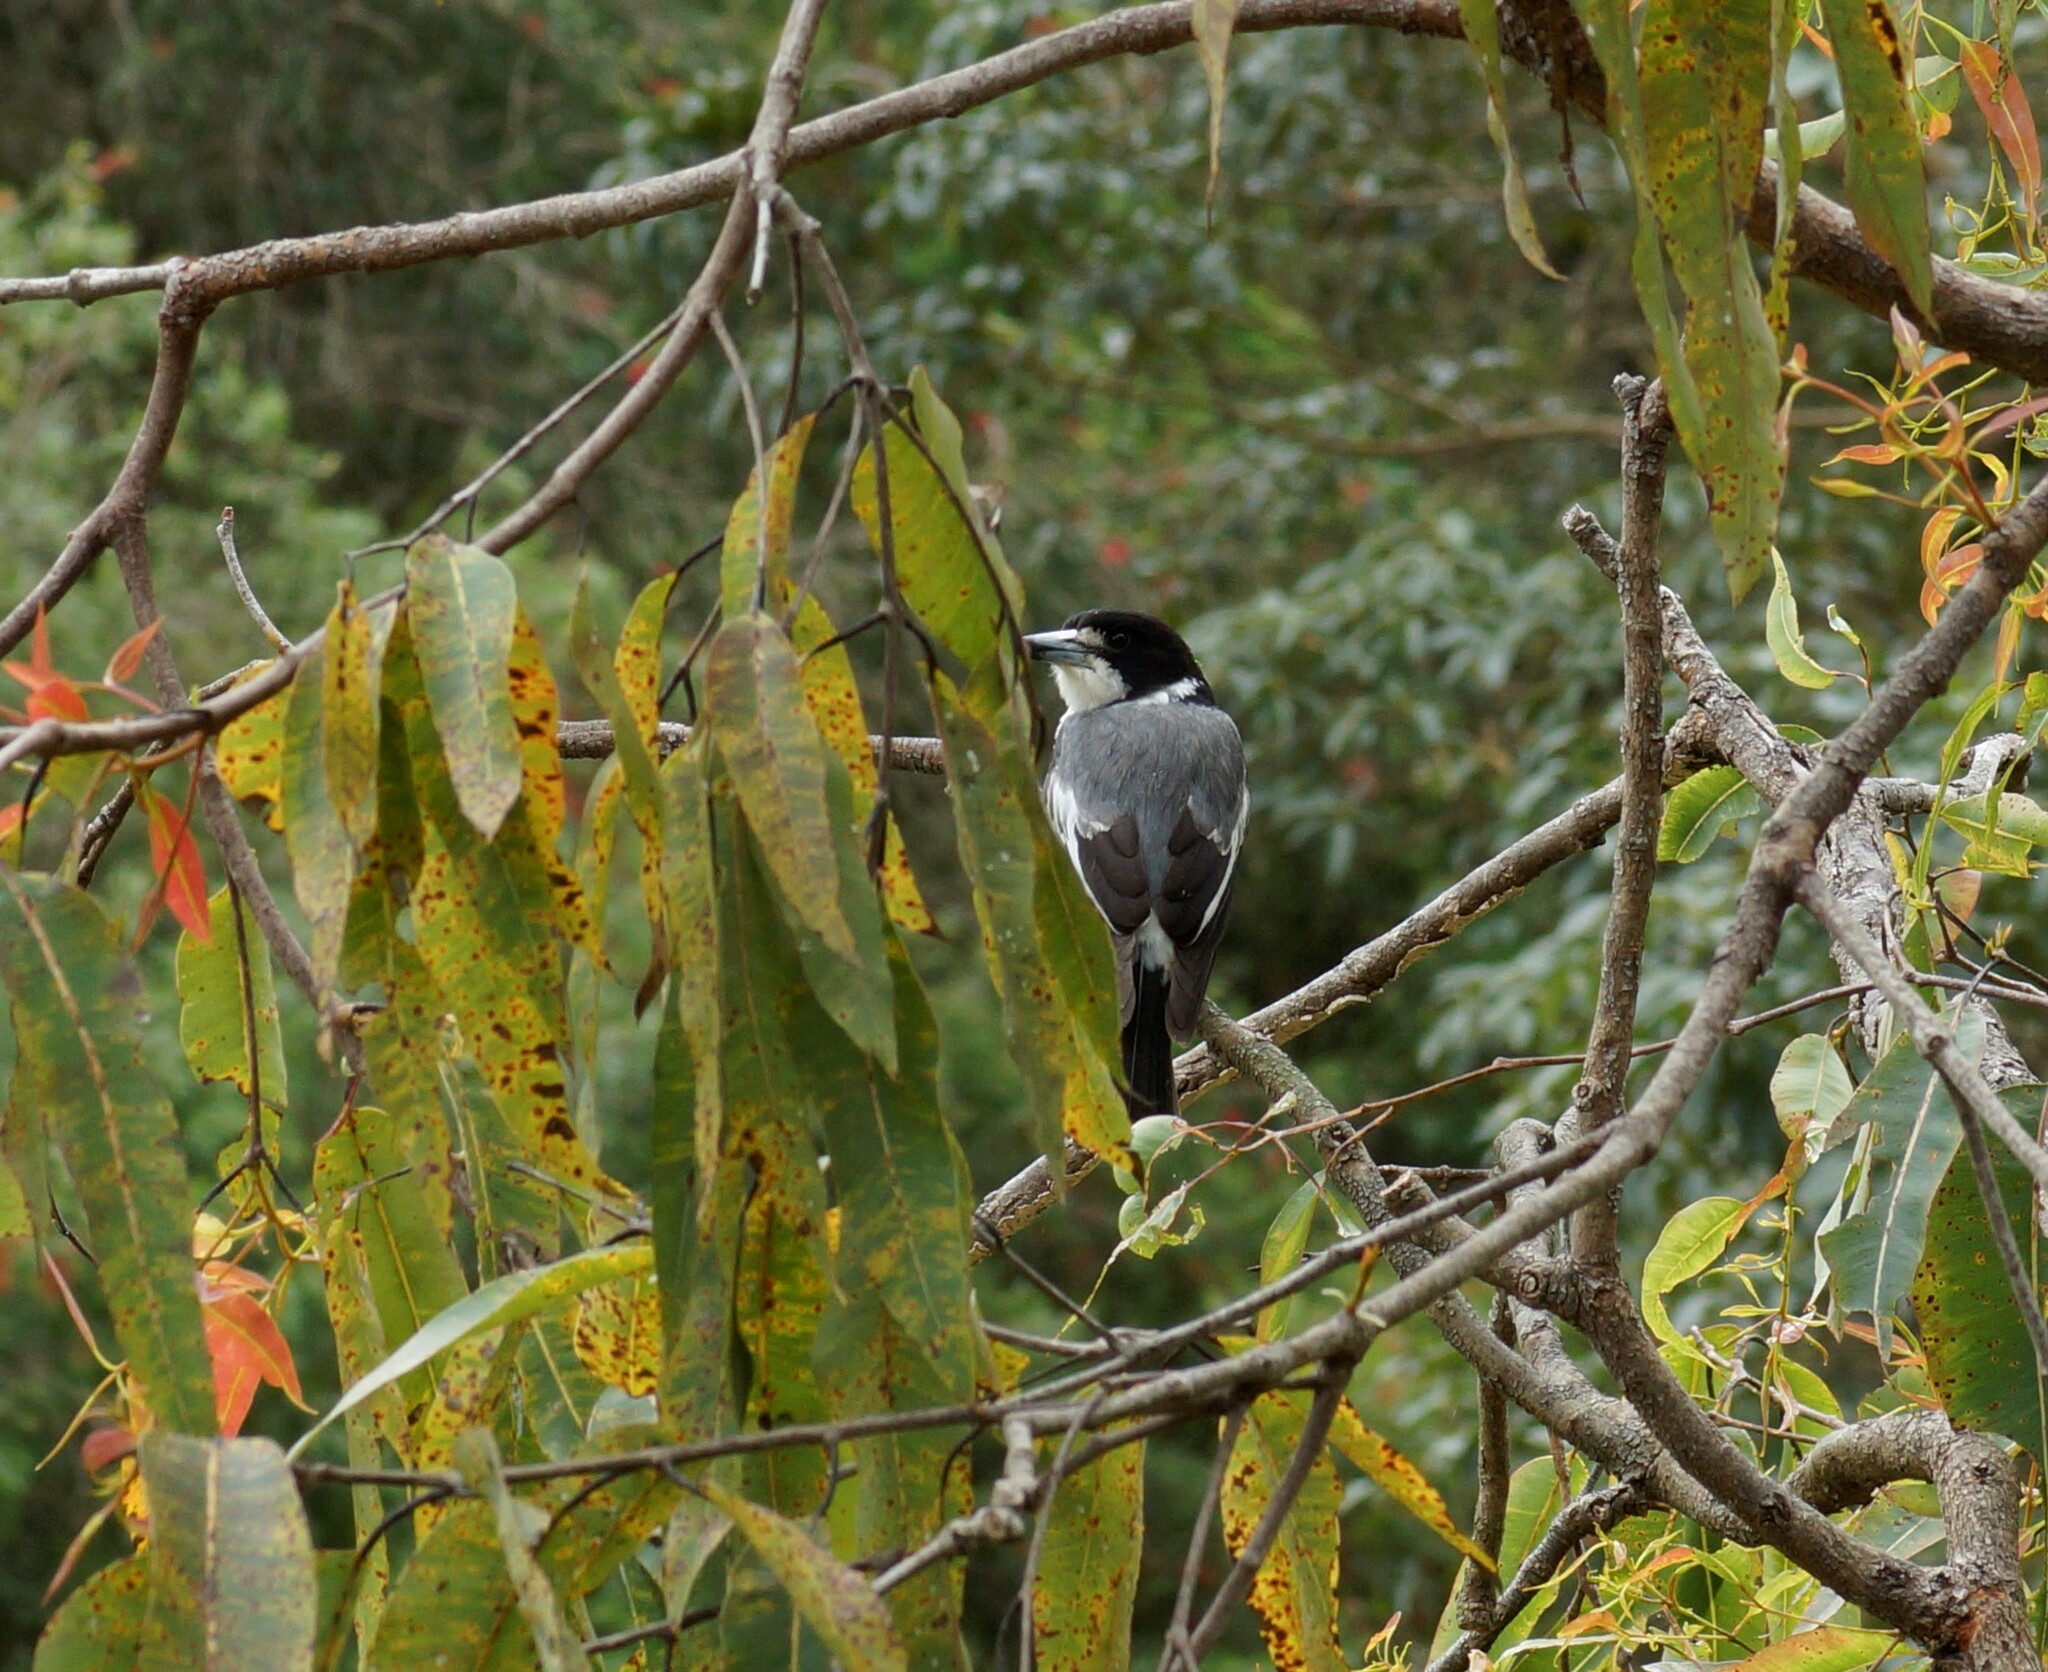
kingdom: Animalia
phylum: Chordata
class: Aves
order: Passeriformes
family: Cracticidae
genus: Cracticus
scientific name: Cracticus torquatus
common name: Grey butcherbird
